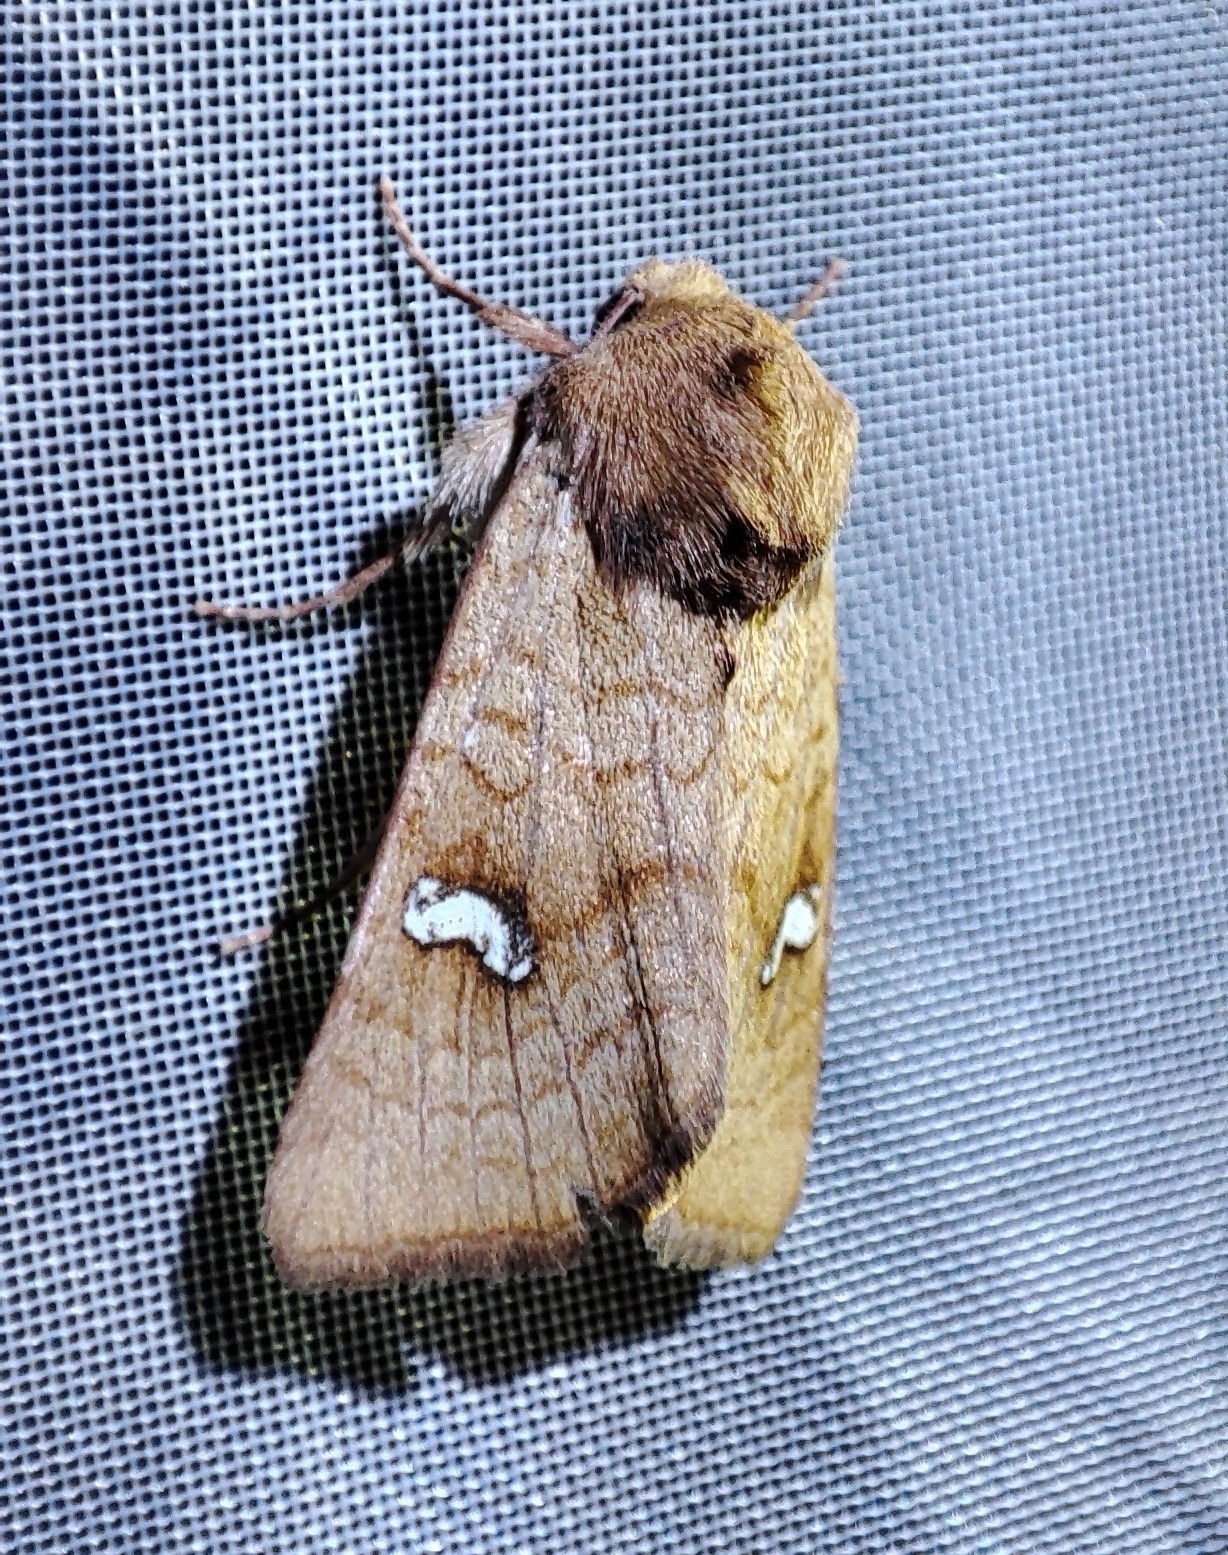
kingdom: Animalia
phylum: Arthropoda
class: Insecta
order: Lepidoptera
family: Noctuidae
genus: Amphipoea
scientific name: Amphipoea ochreola
